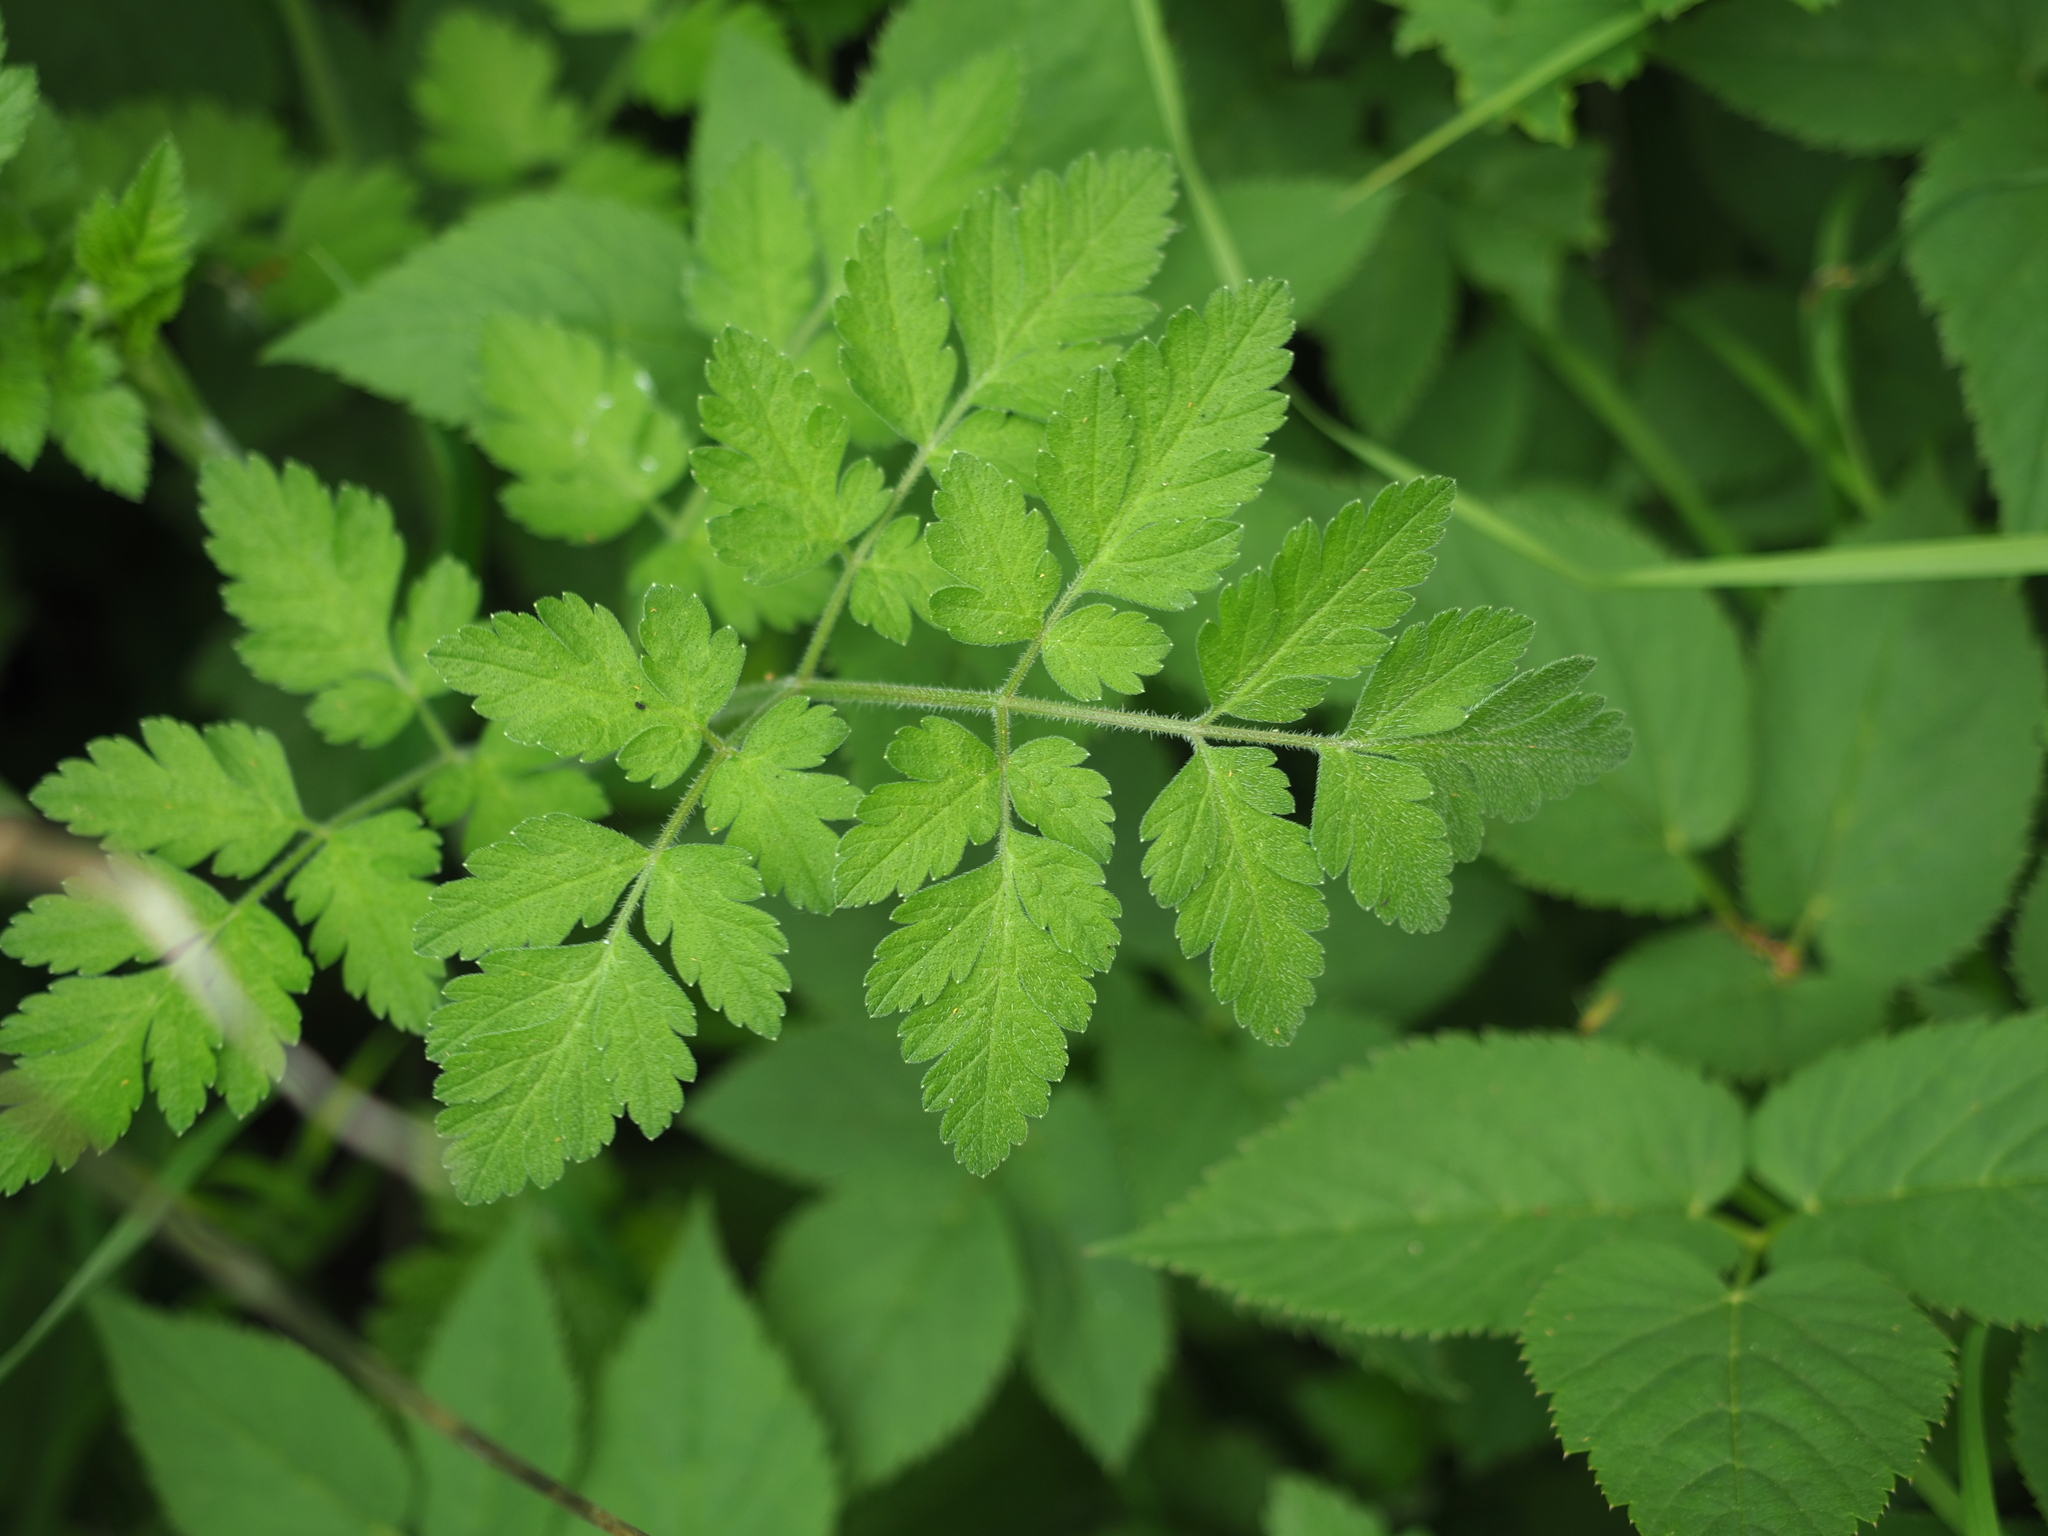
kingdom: Plantae
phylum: Tracheophyta
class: Magnoliopsida
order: Apiales
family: Apiaceae
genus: Chaerophyllum
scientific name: Chaerophyllum temulum
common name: Rough chervil
